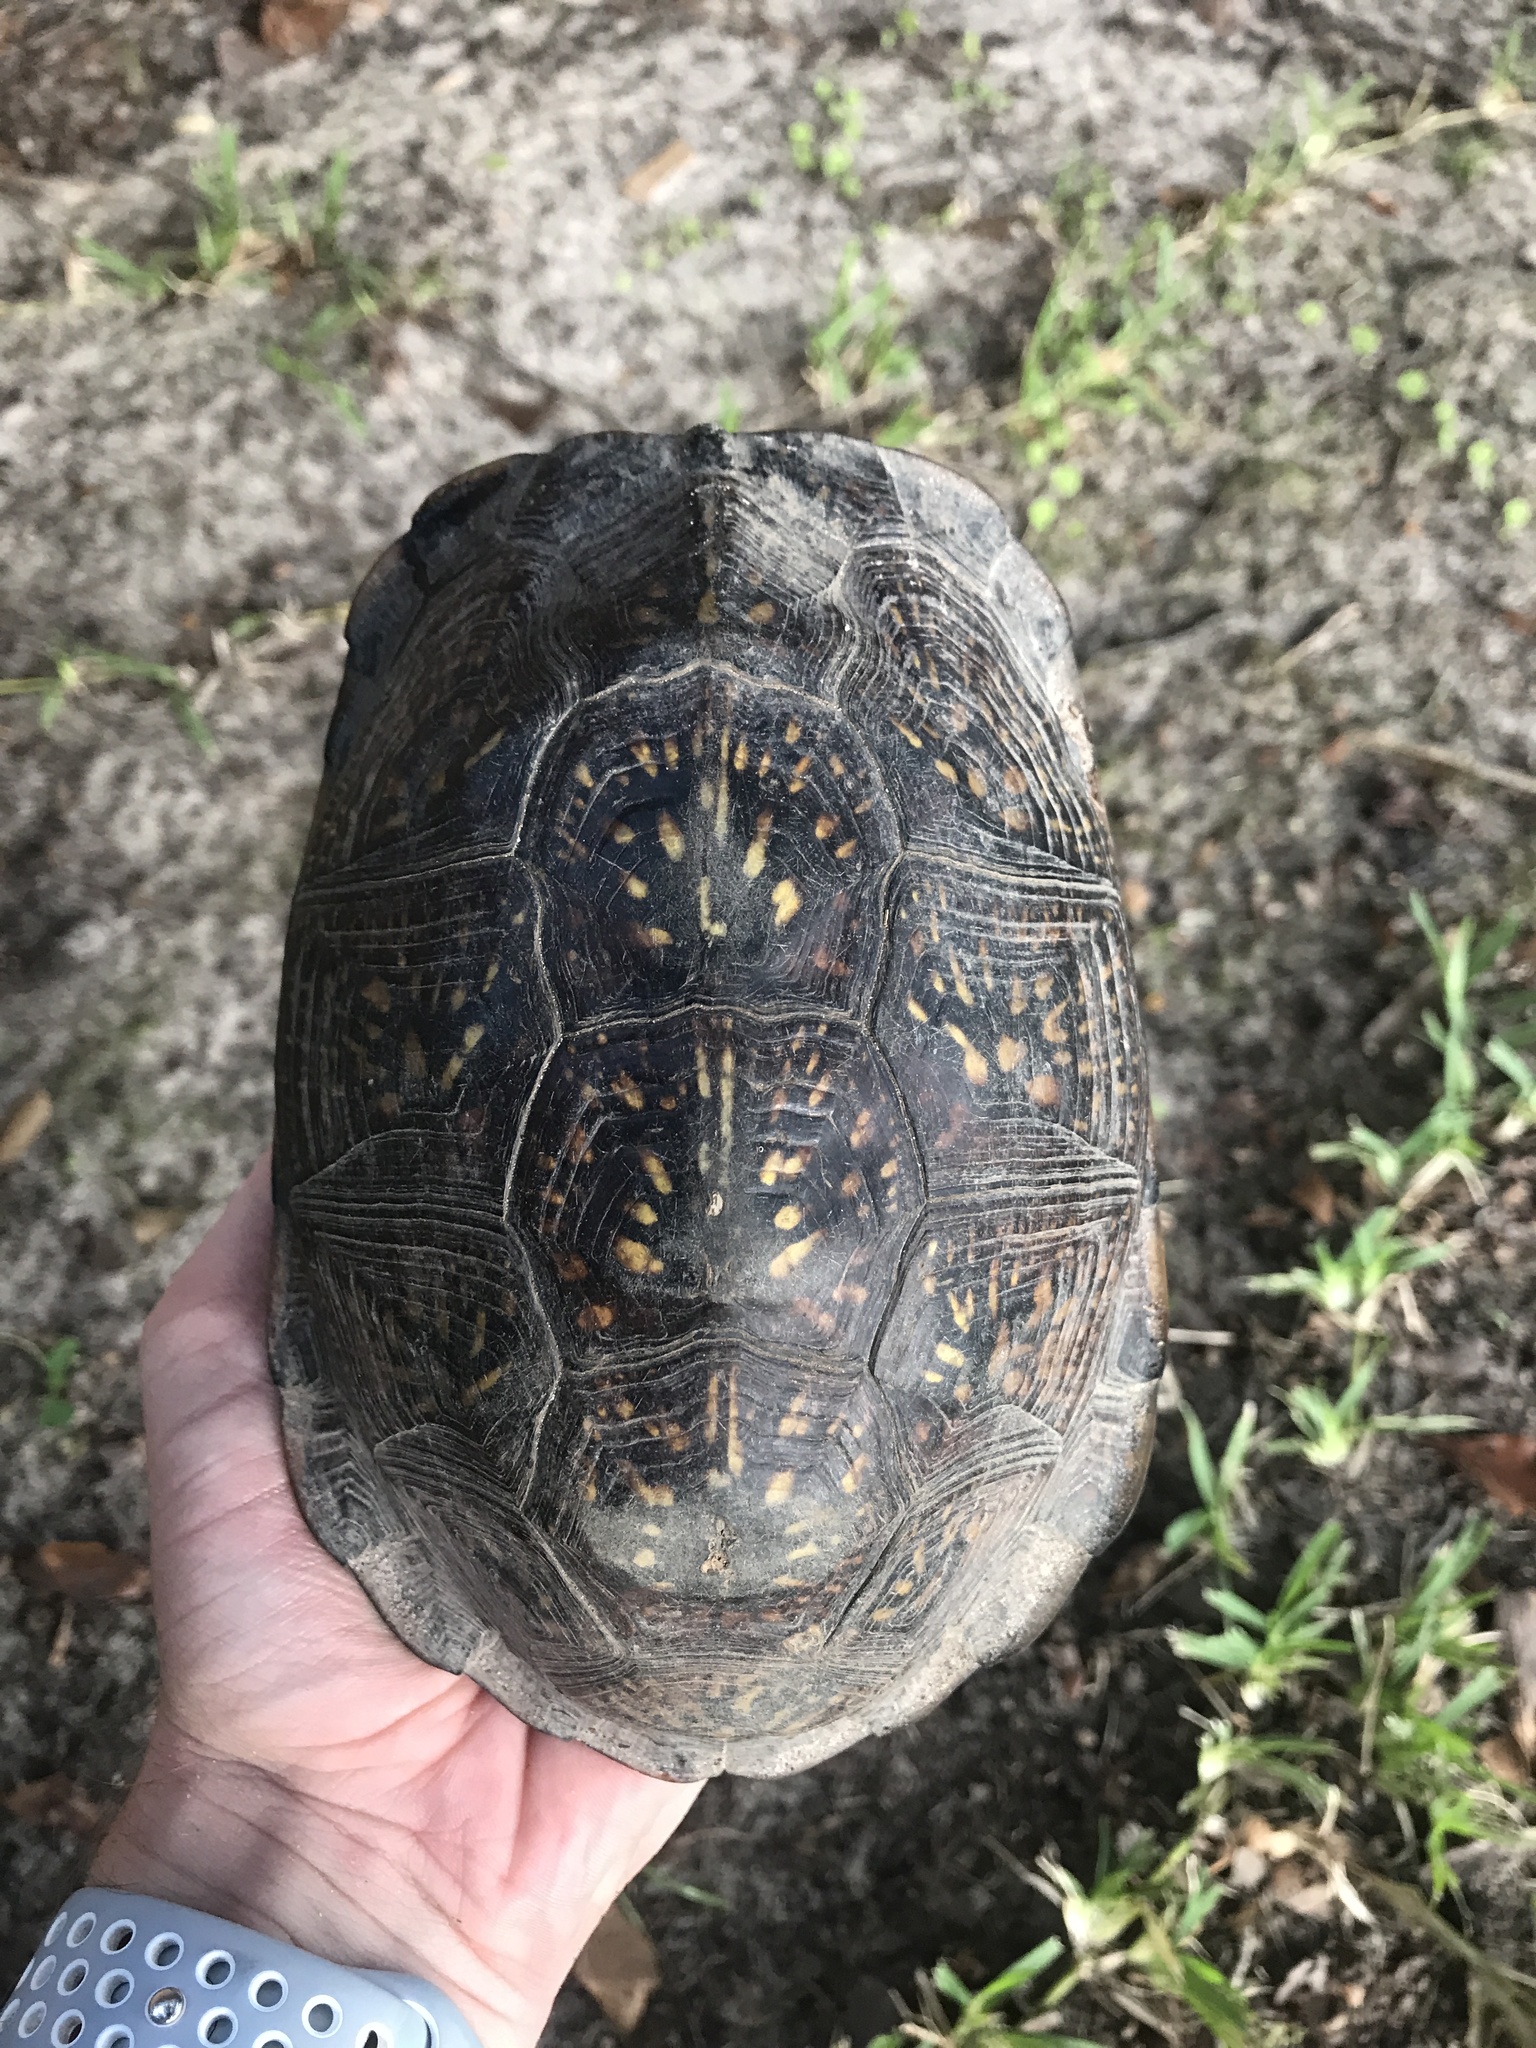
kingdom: Animalia
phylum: Chordata
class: Testudines
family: Emydidae
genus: Terrapene
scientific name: Terrapene carolina
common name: Common box turtle
